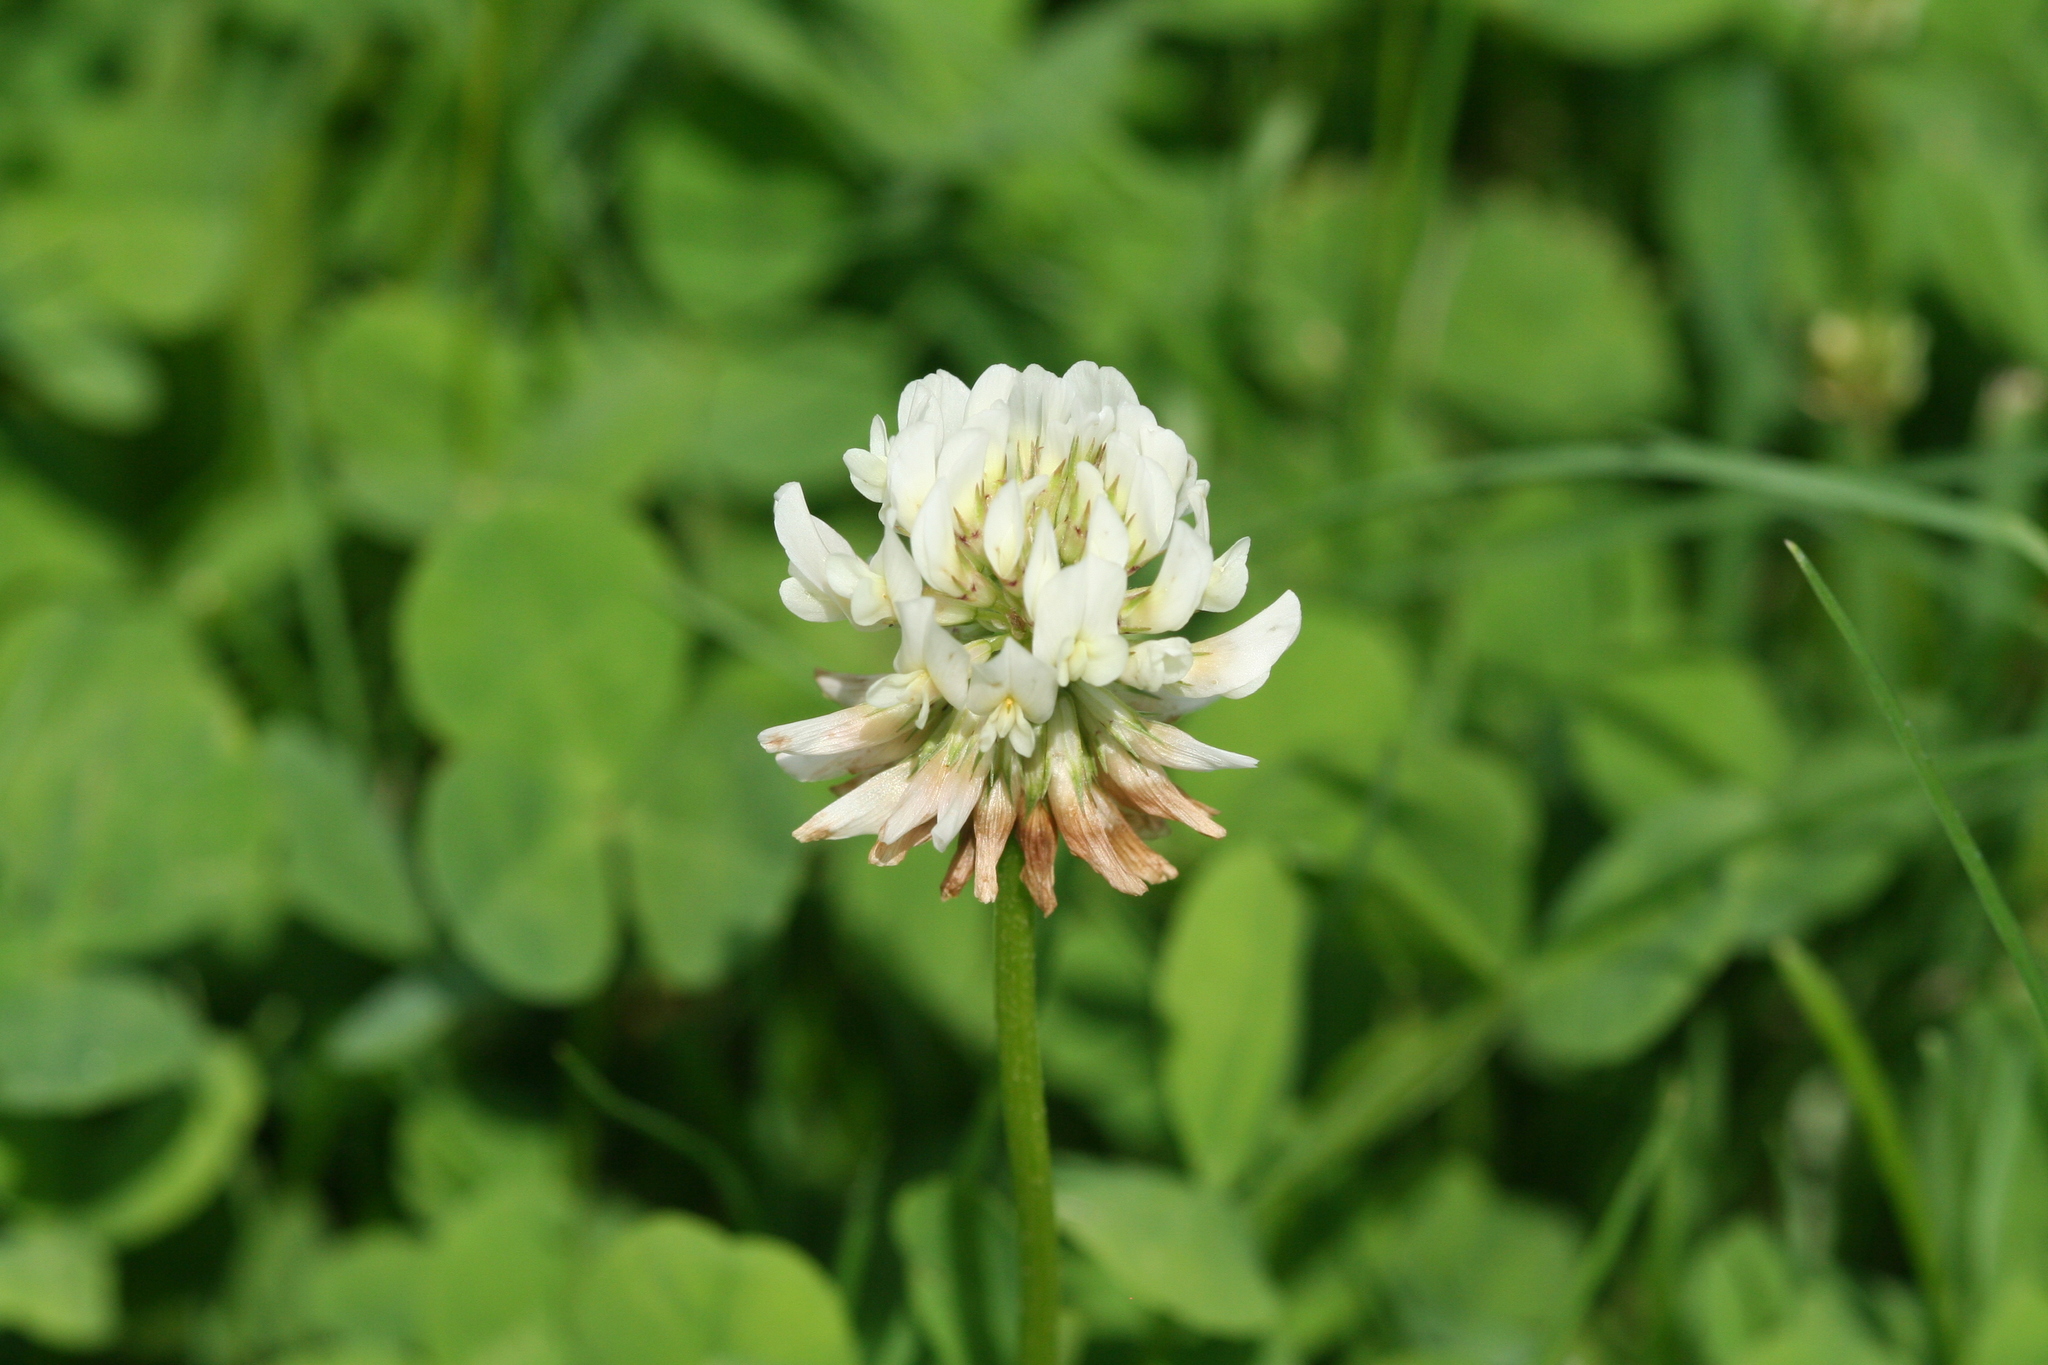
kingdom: Plantae
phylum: Tracheophyta
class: Magnoliopsida
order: Fabales
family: Fabaceae
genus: Trifolium
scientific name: Trifolium repens
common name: White clover
